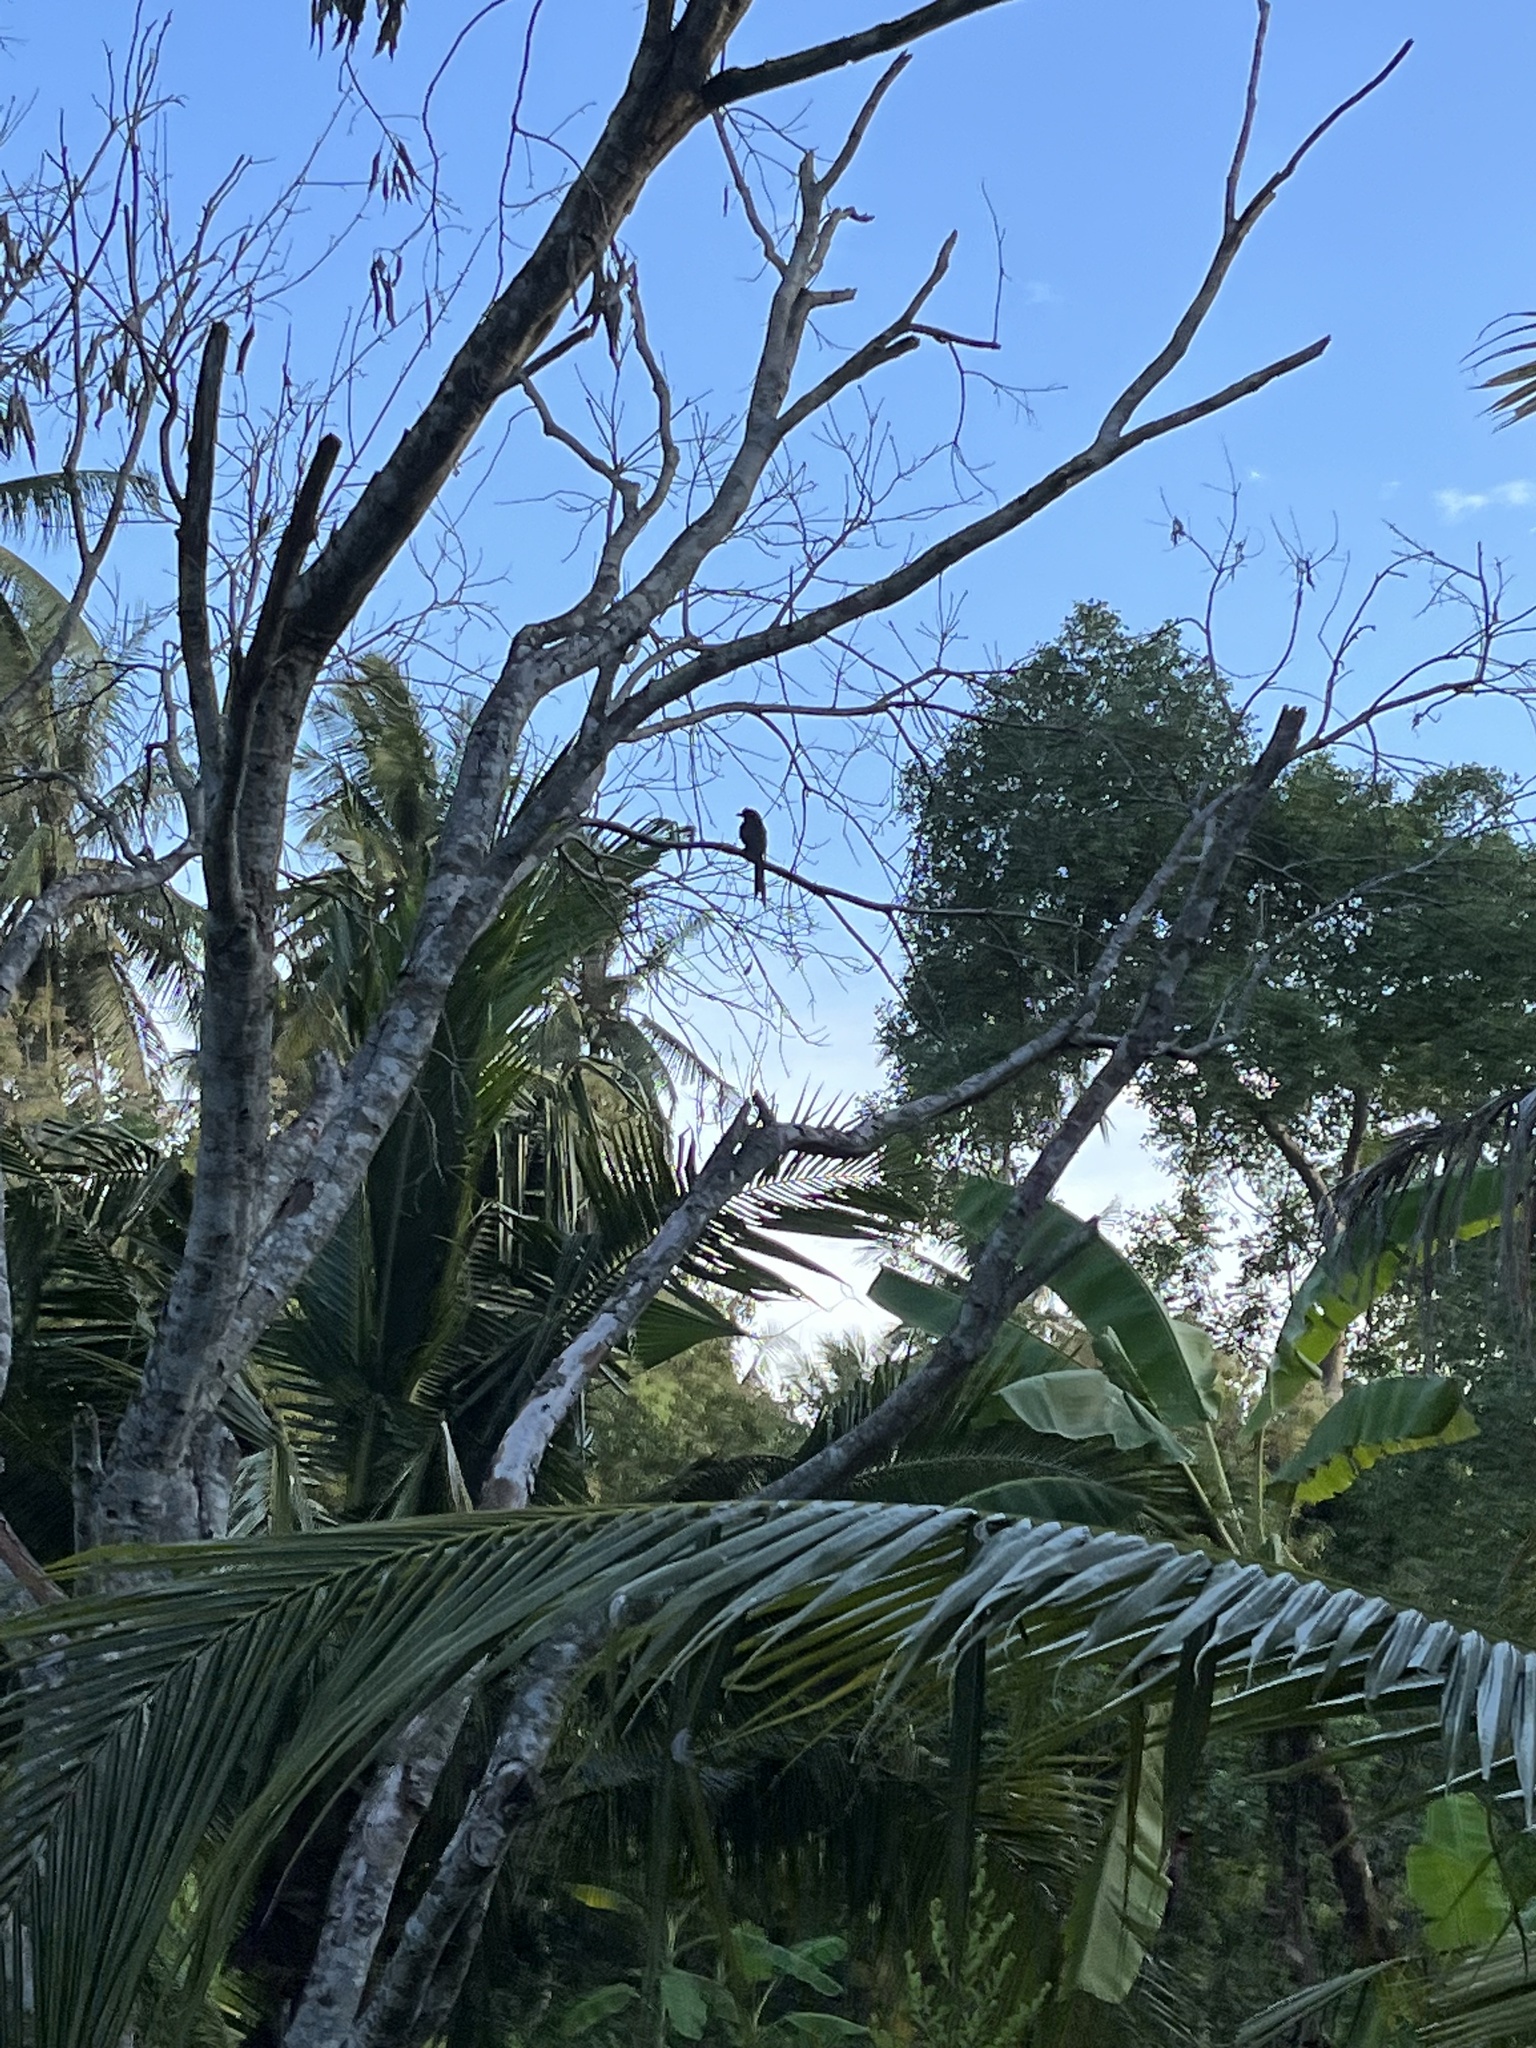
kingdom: Animalia
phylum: Chordata
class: Aves
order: Passeriformes
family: Dicruridae
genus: Dicrurus
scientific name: Dicrurus paradiseus
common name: Greater racket-tailed drongo
